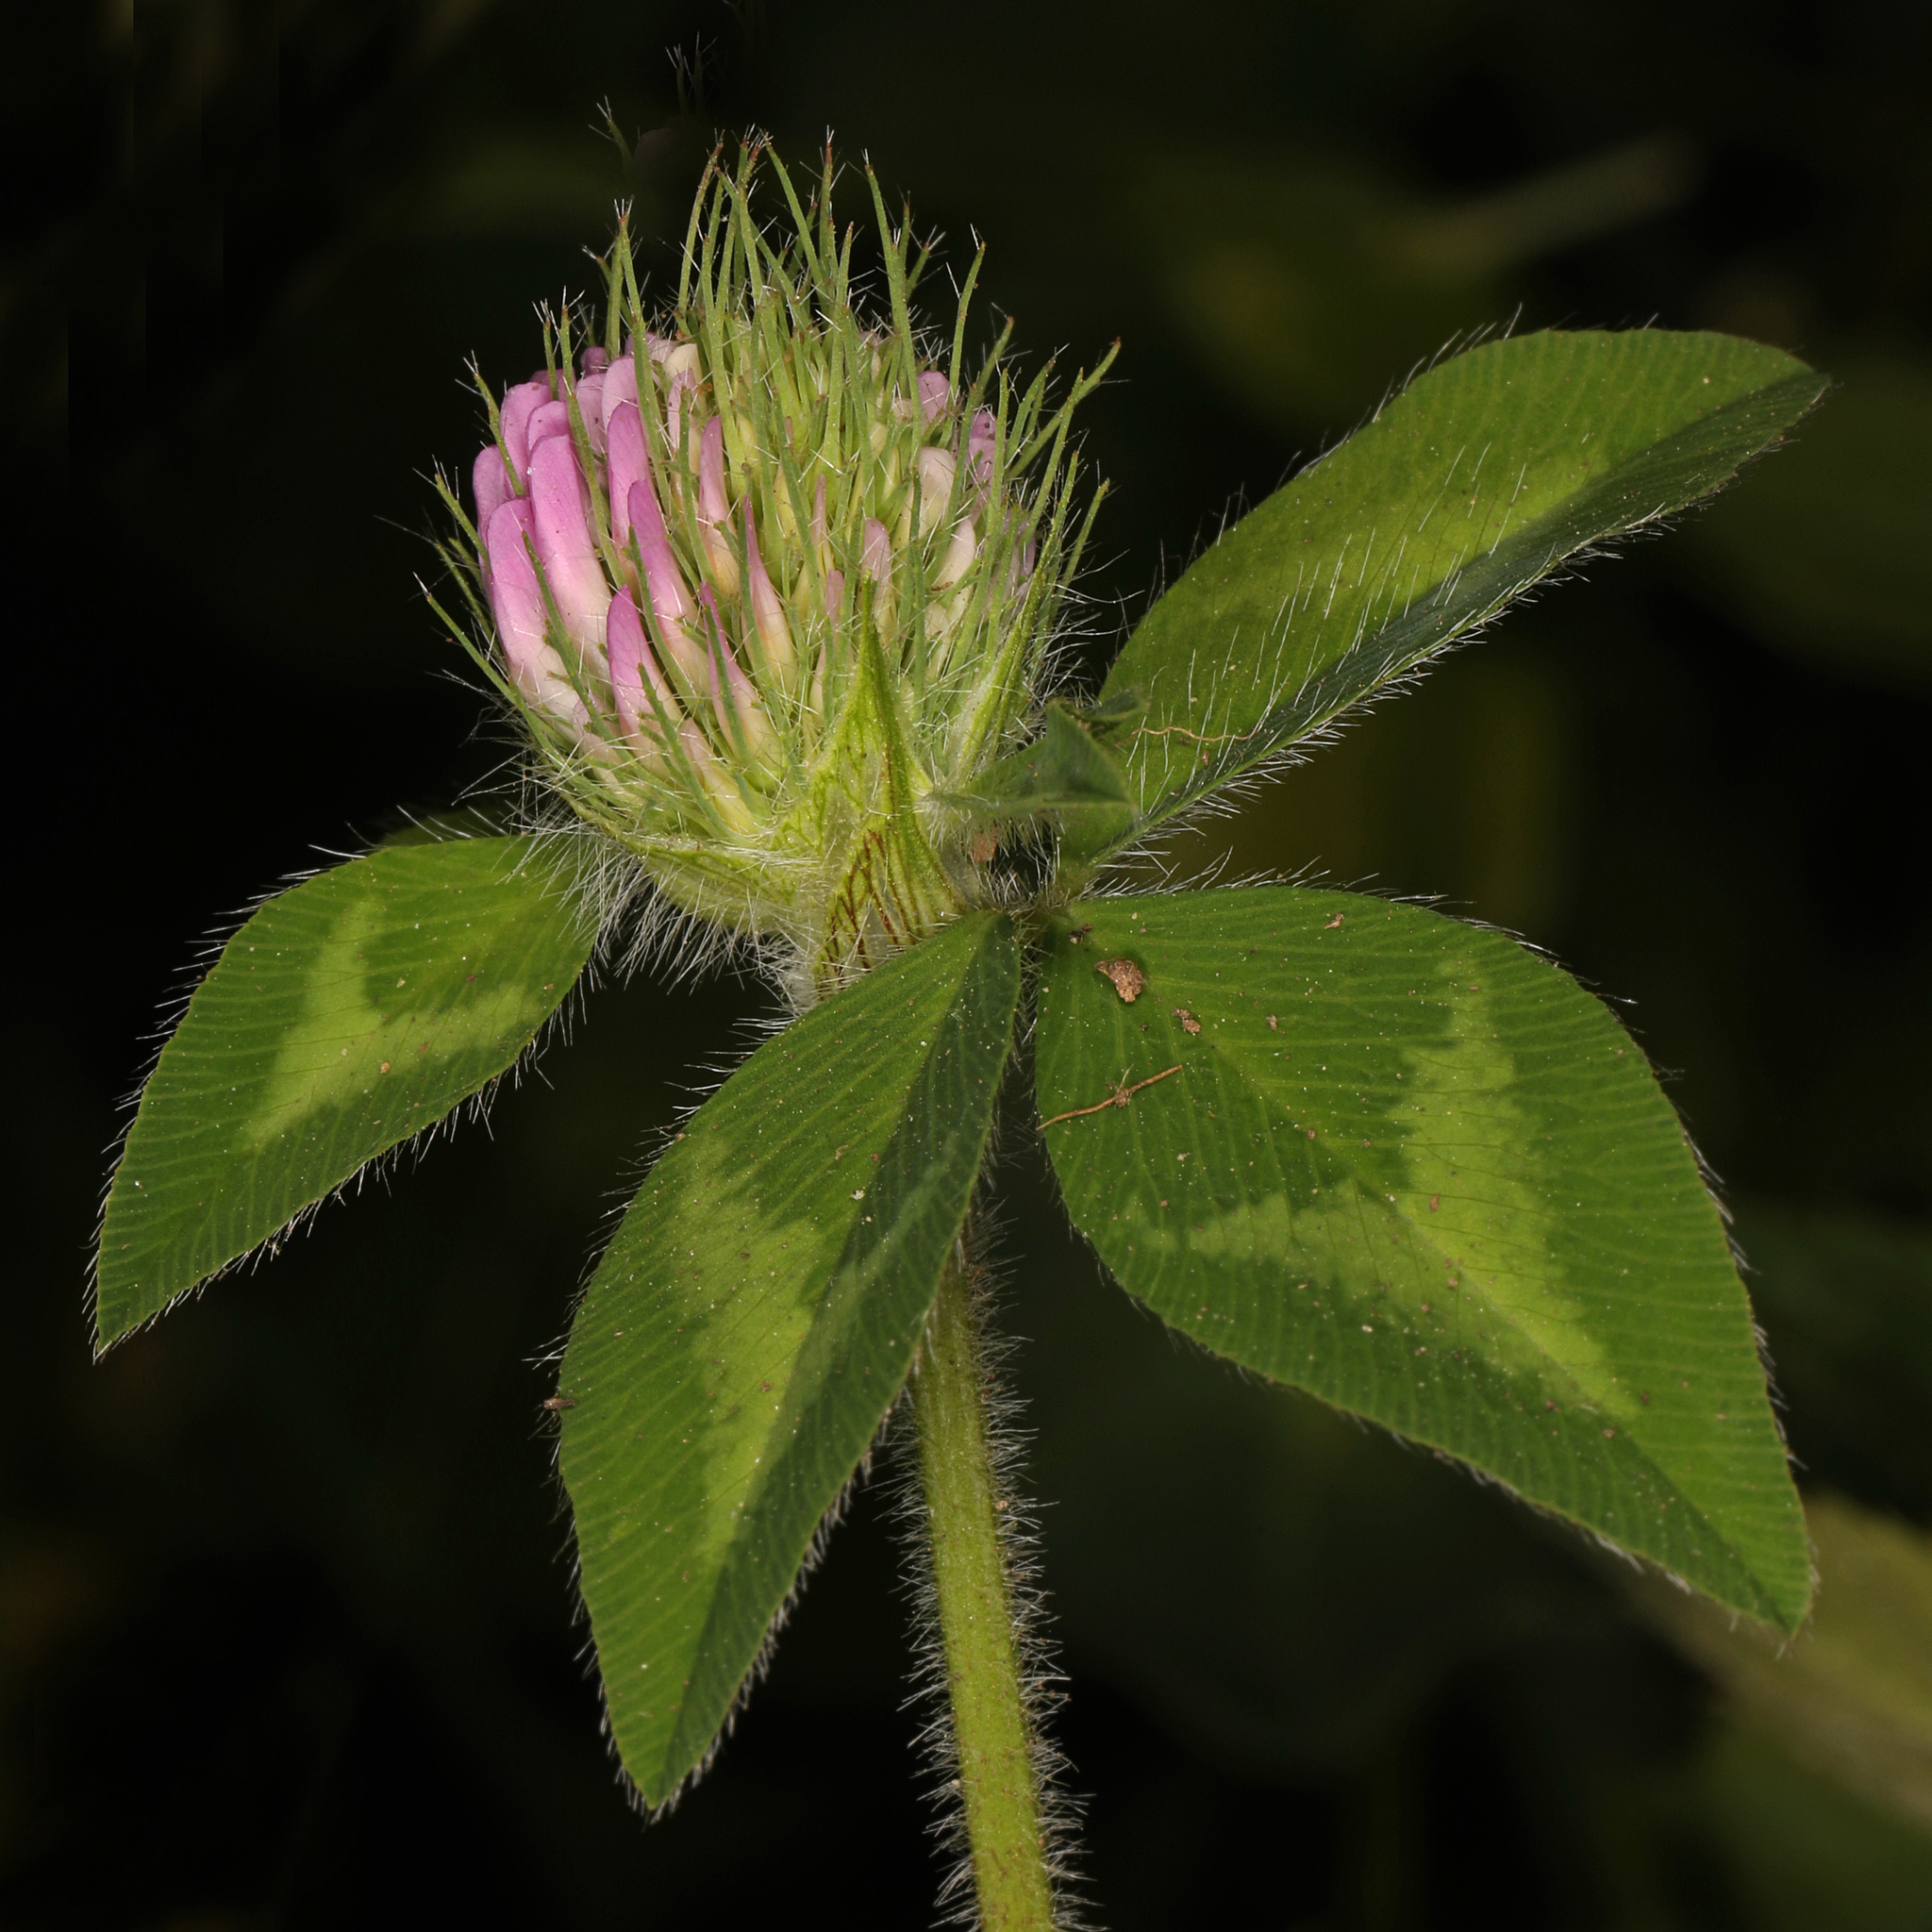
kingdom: Plantae
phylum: Tracheophyta
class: Magnoliopsida
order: Fabales
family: Fabaceae
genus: Trifolium
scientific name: Trifolium pratense
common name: Red clover
